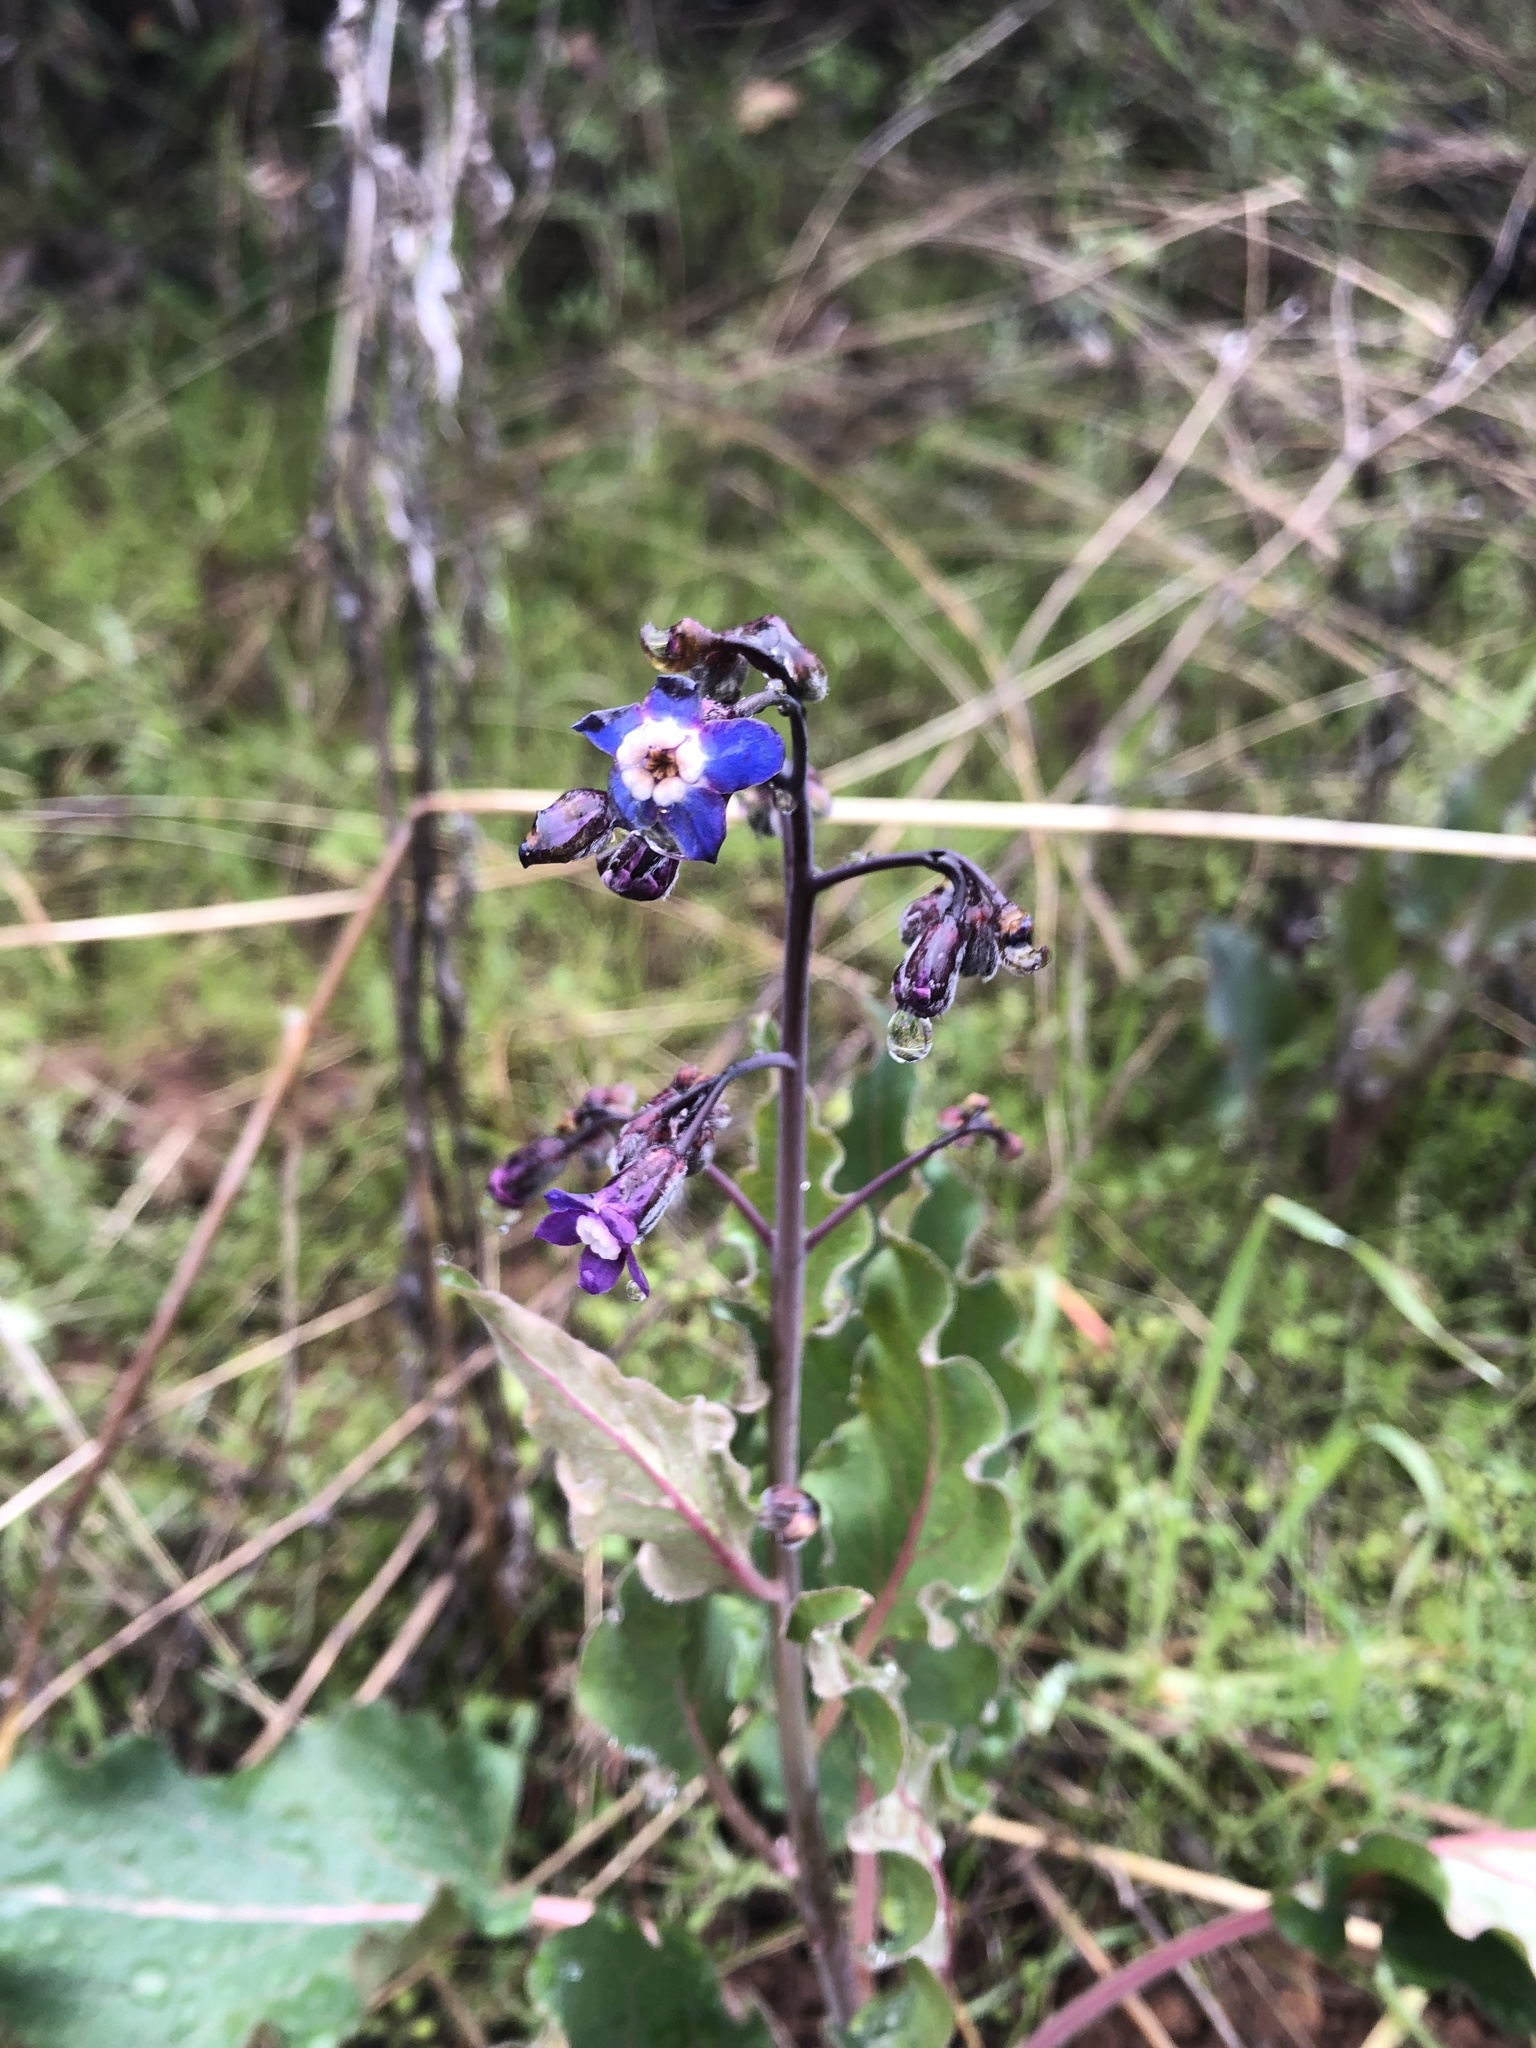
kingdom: Plantae
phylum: Tracheophyta
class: Magnoliopsida
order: Boraginales
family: Boraginaceae
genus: Adelinia
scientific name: Adelinia grande
